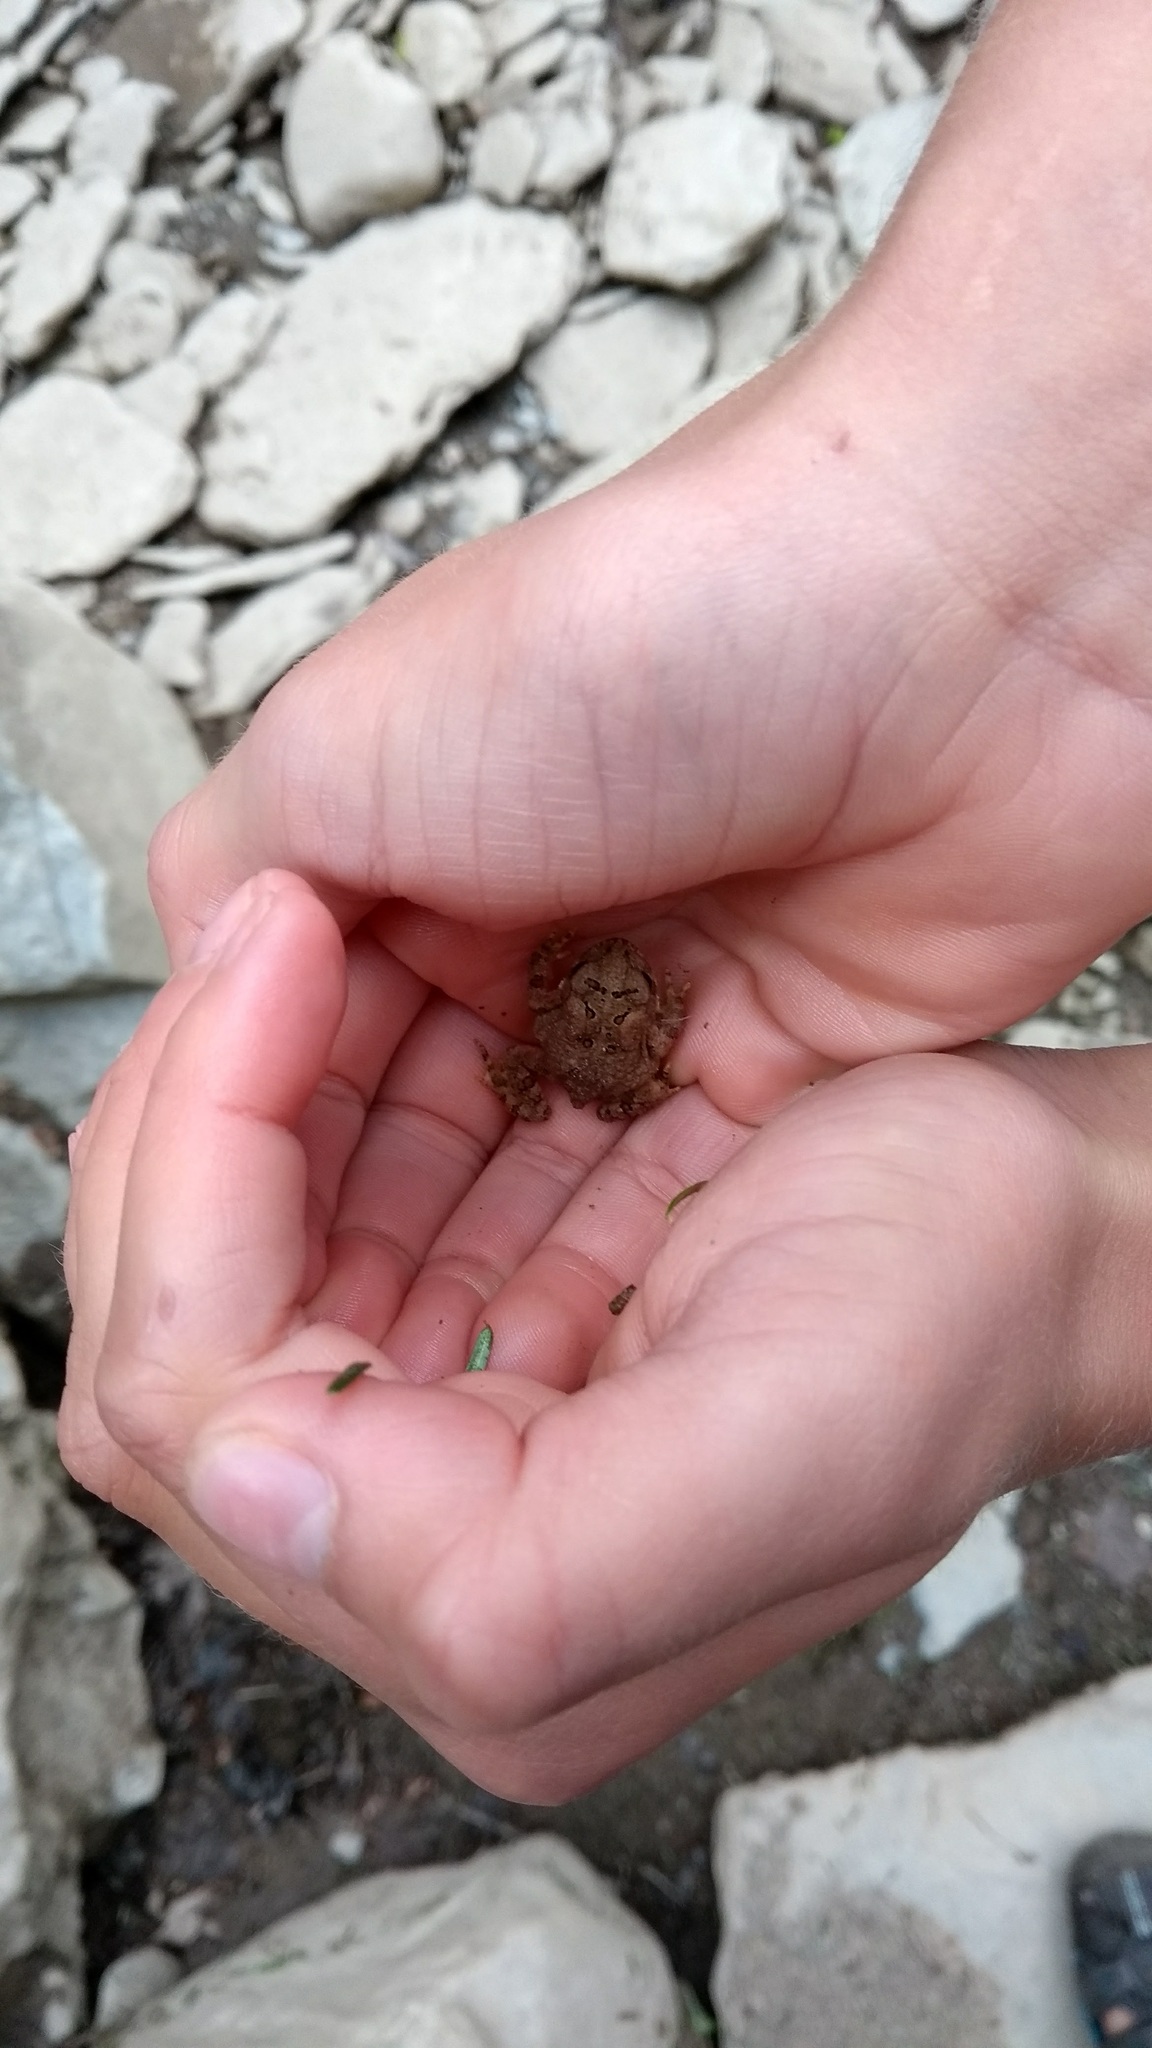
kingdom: Animalia
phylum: Chordata
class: Amphibia
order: Anura
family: Bufonidae
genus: Anaxyrus
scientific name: Anaxyrus americanus
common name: American toad
